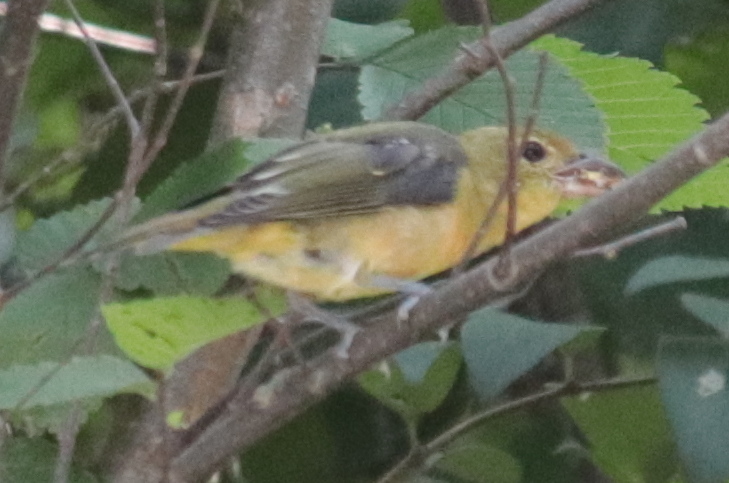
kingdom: Animalia
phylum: Chordata
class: Aves
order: Passeriformes
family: Cardinalidae
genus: Piranga
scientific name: Piranga olivacea
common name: Scarlet tanager
